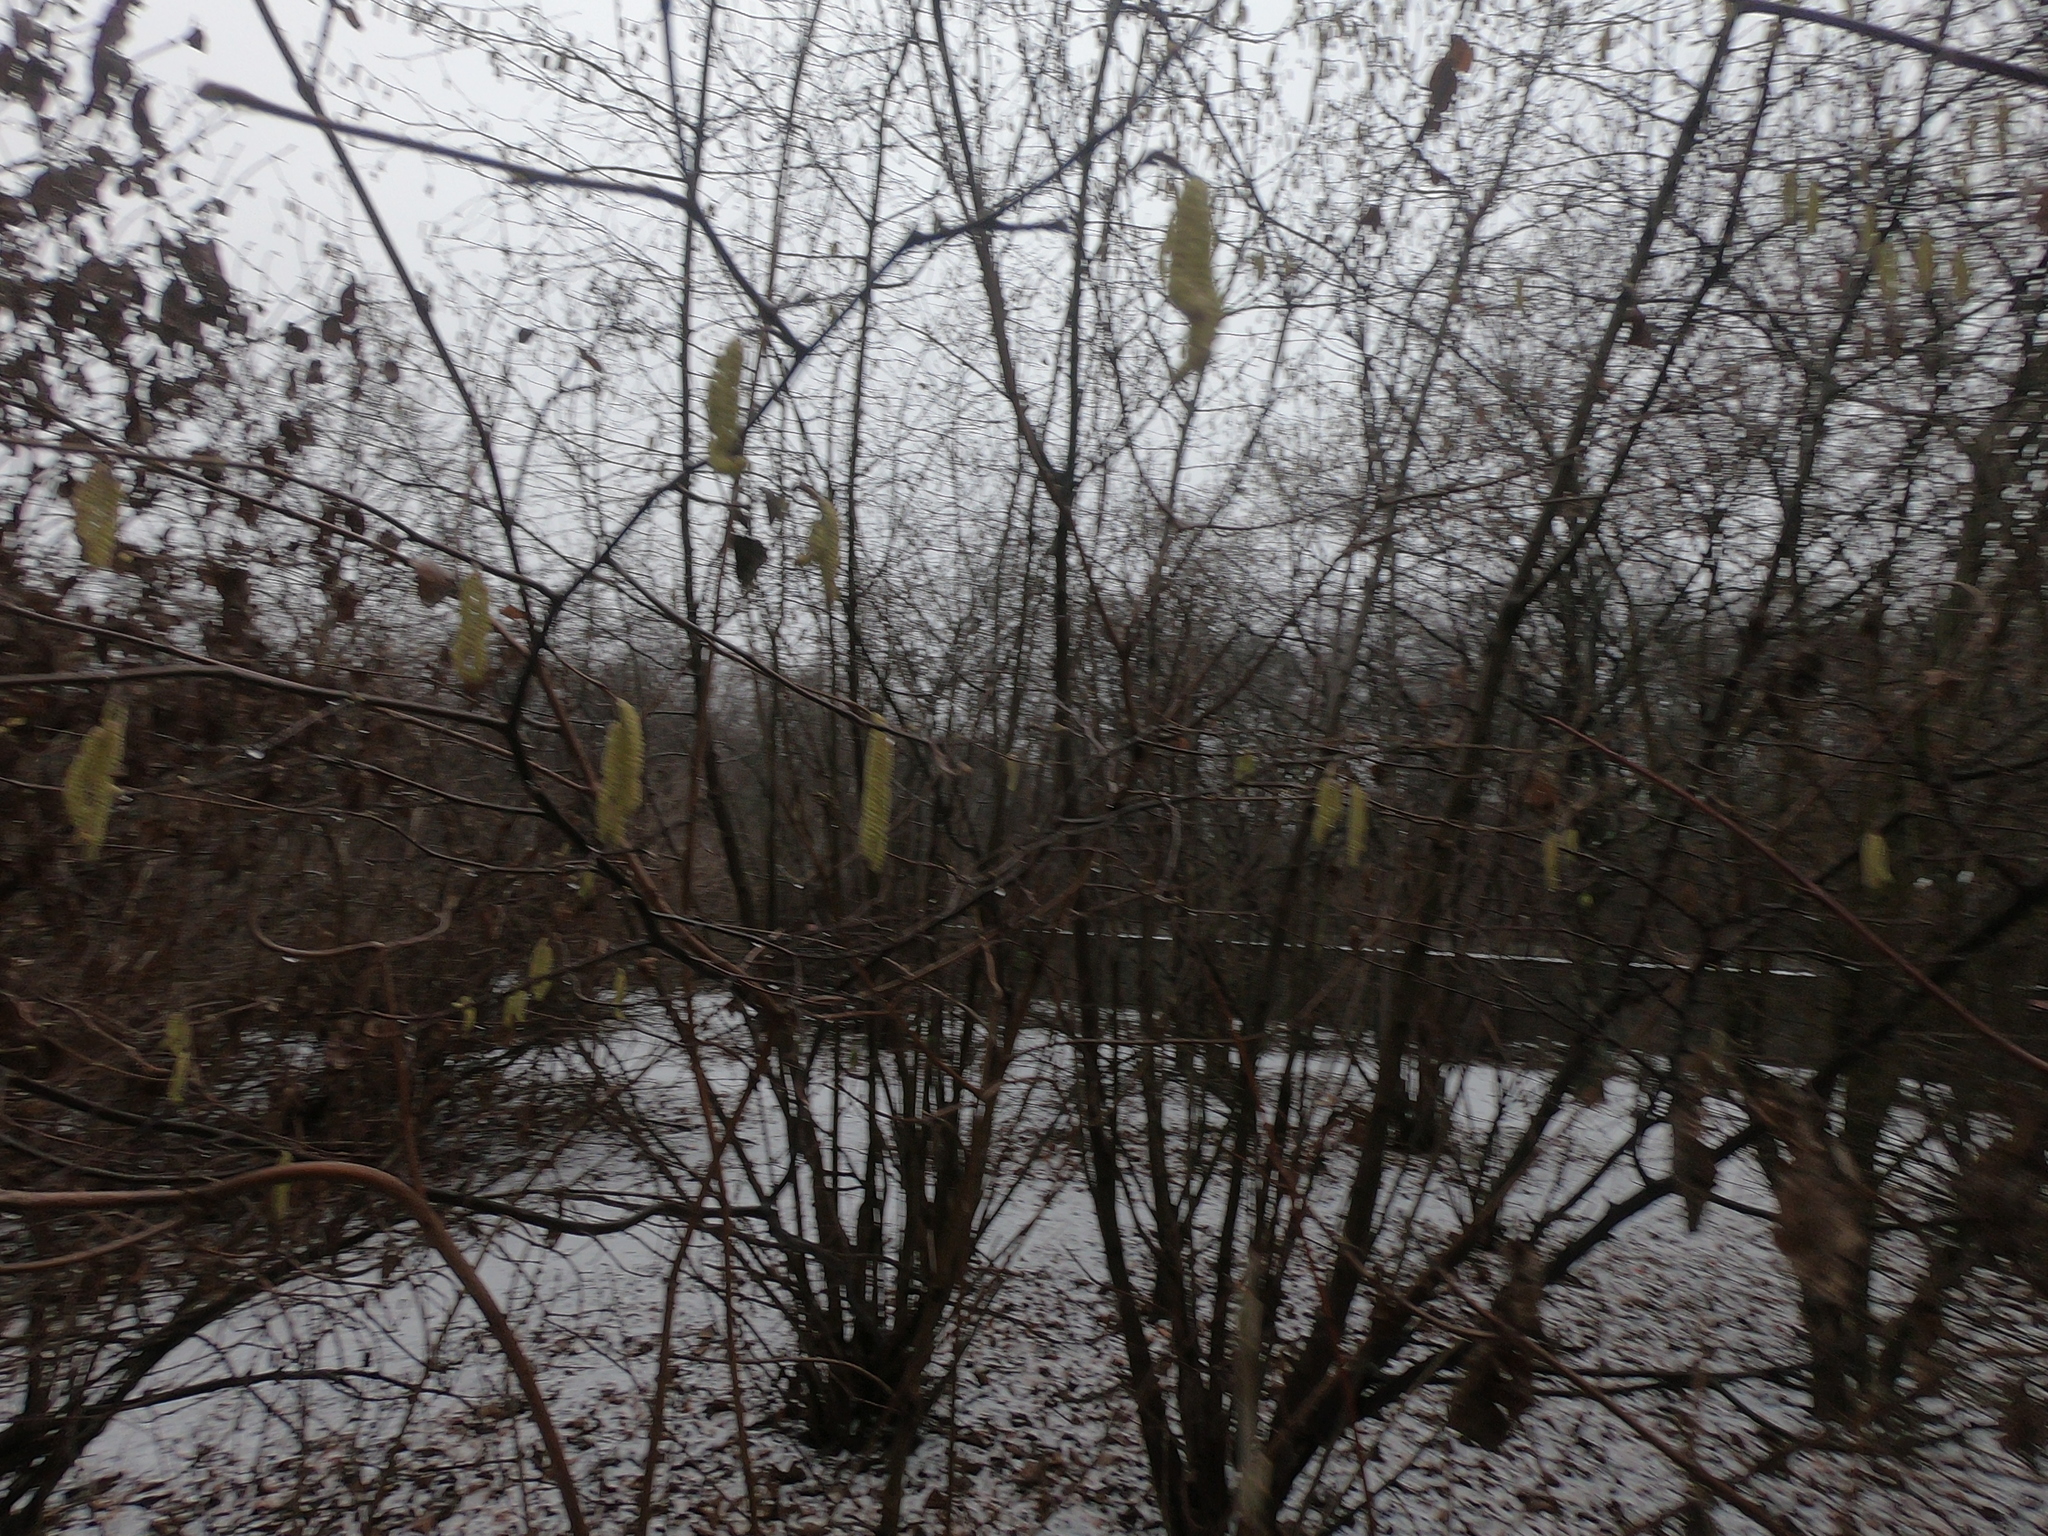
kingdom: Plantae
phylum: Tracheophyta
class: Magnoliopsida
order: Fagales
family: Betulaceae
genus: Corylus
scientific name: Corylus avellana
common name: European hazel
